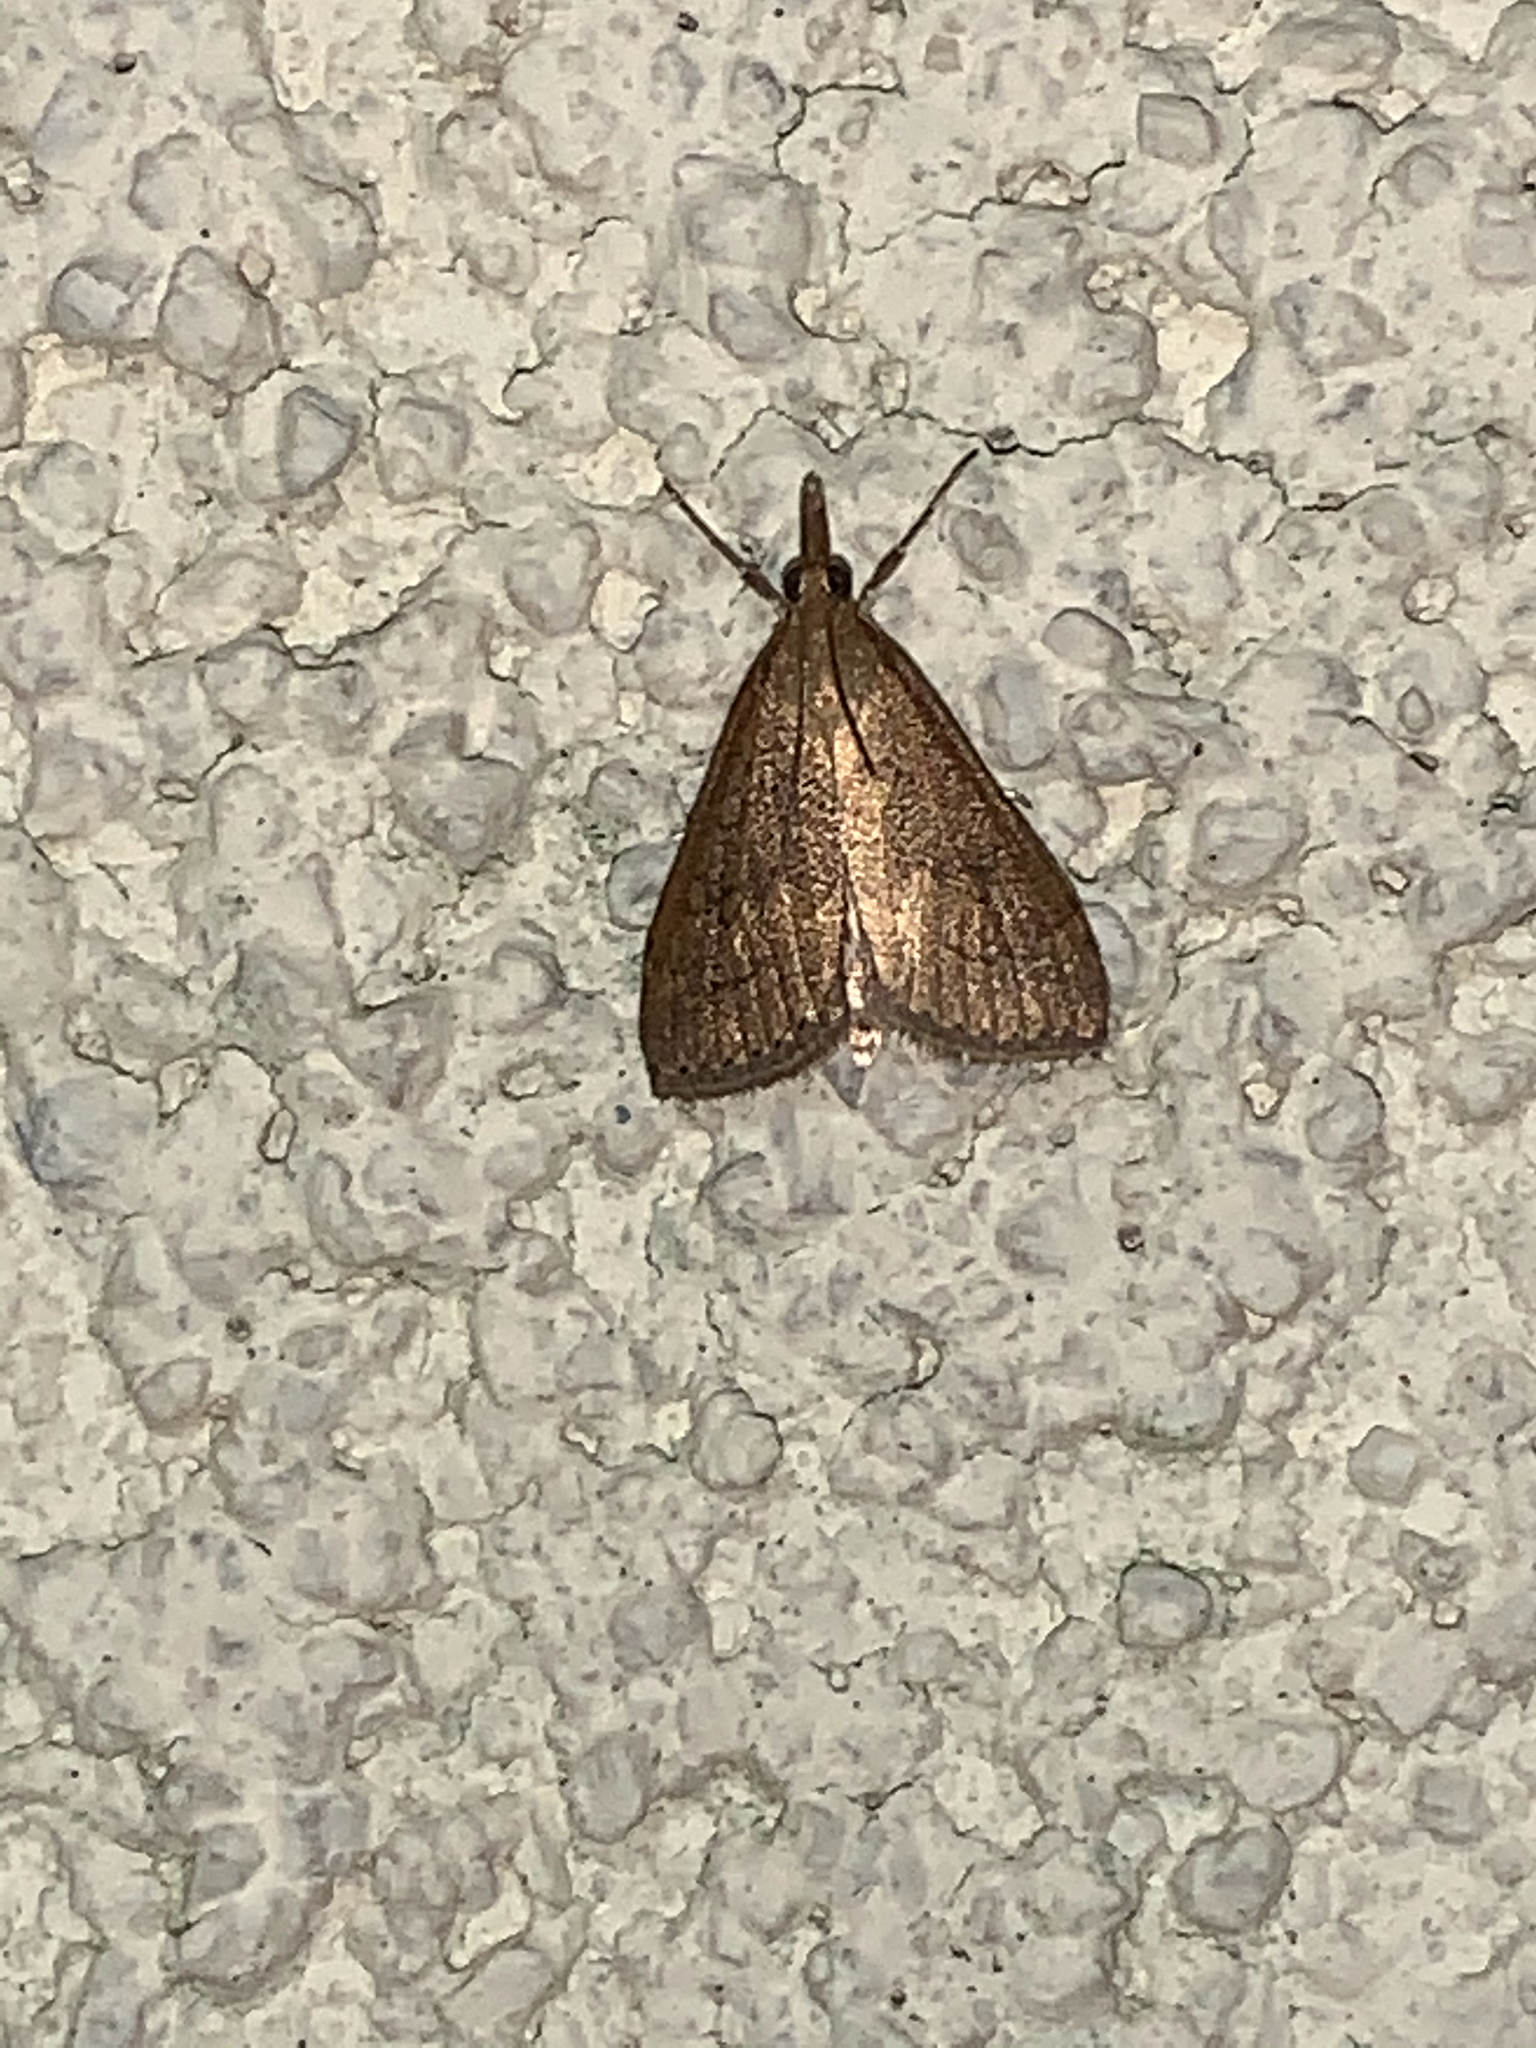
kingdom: Animalia
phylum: Arthropoda
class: Insecta
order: Lepidoptera
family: Crambidae
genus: Udea
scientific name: Udea rubigalis
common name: Celery leaftier moth
